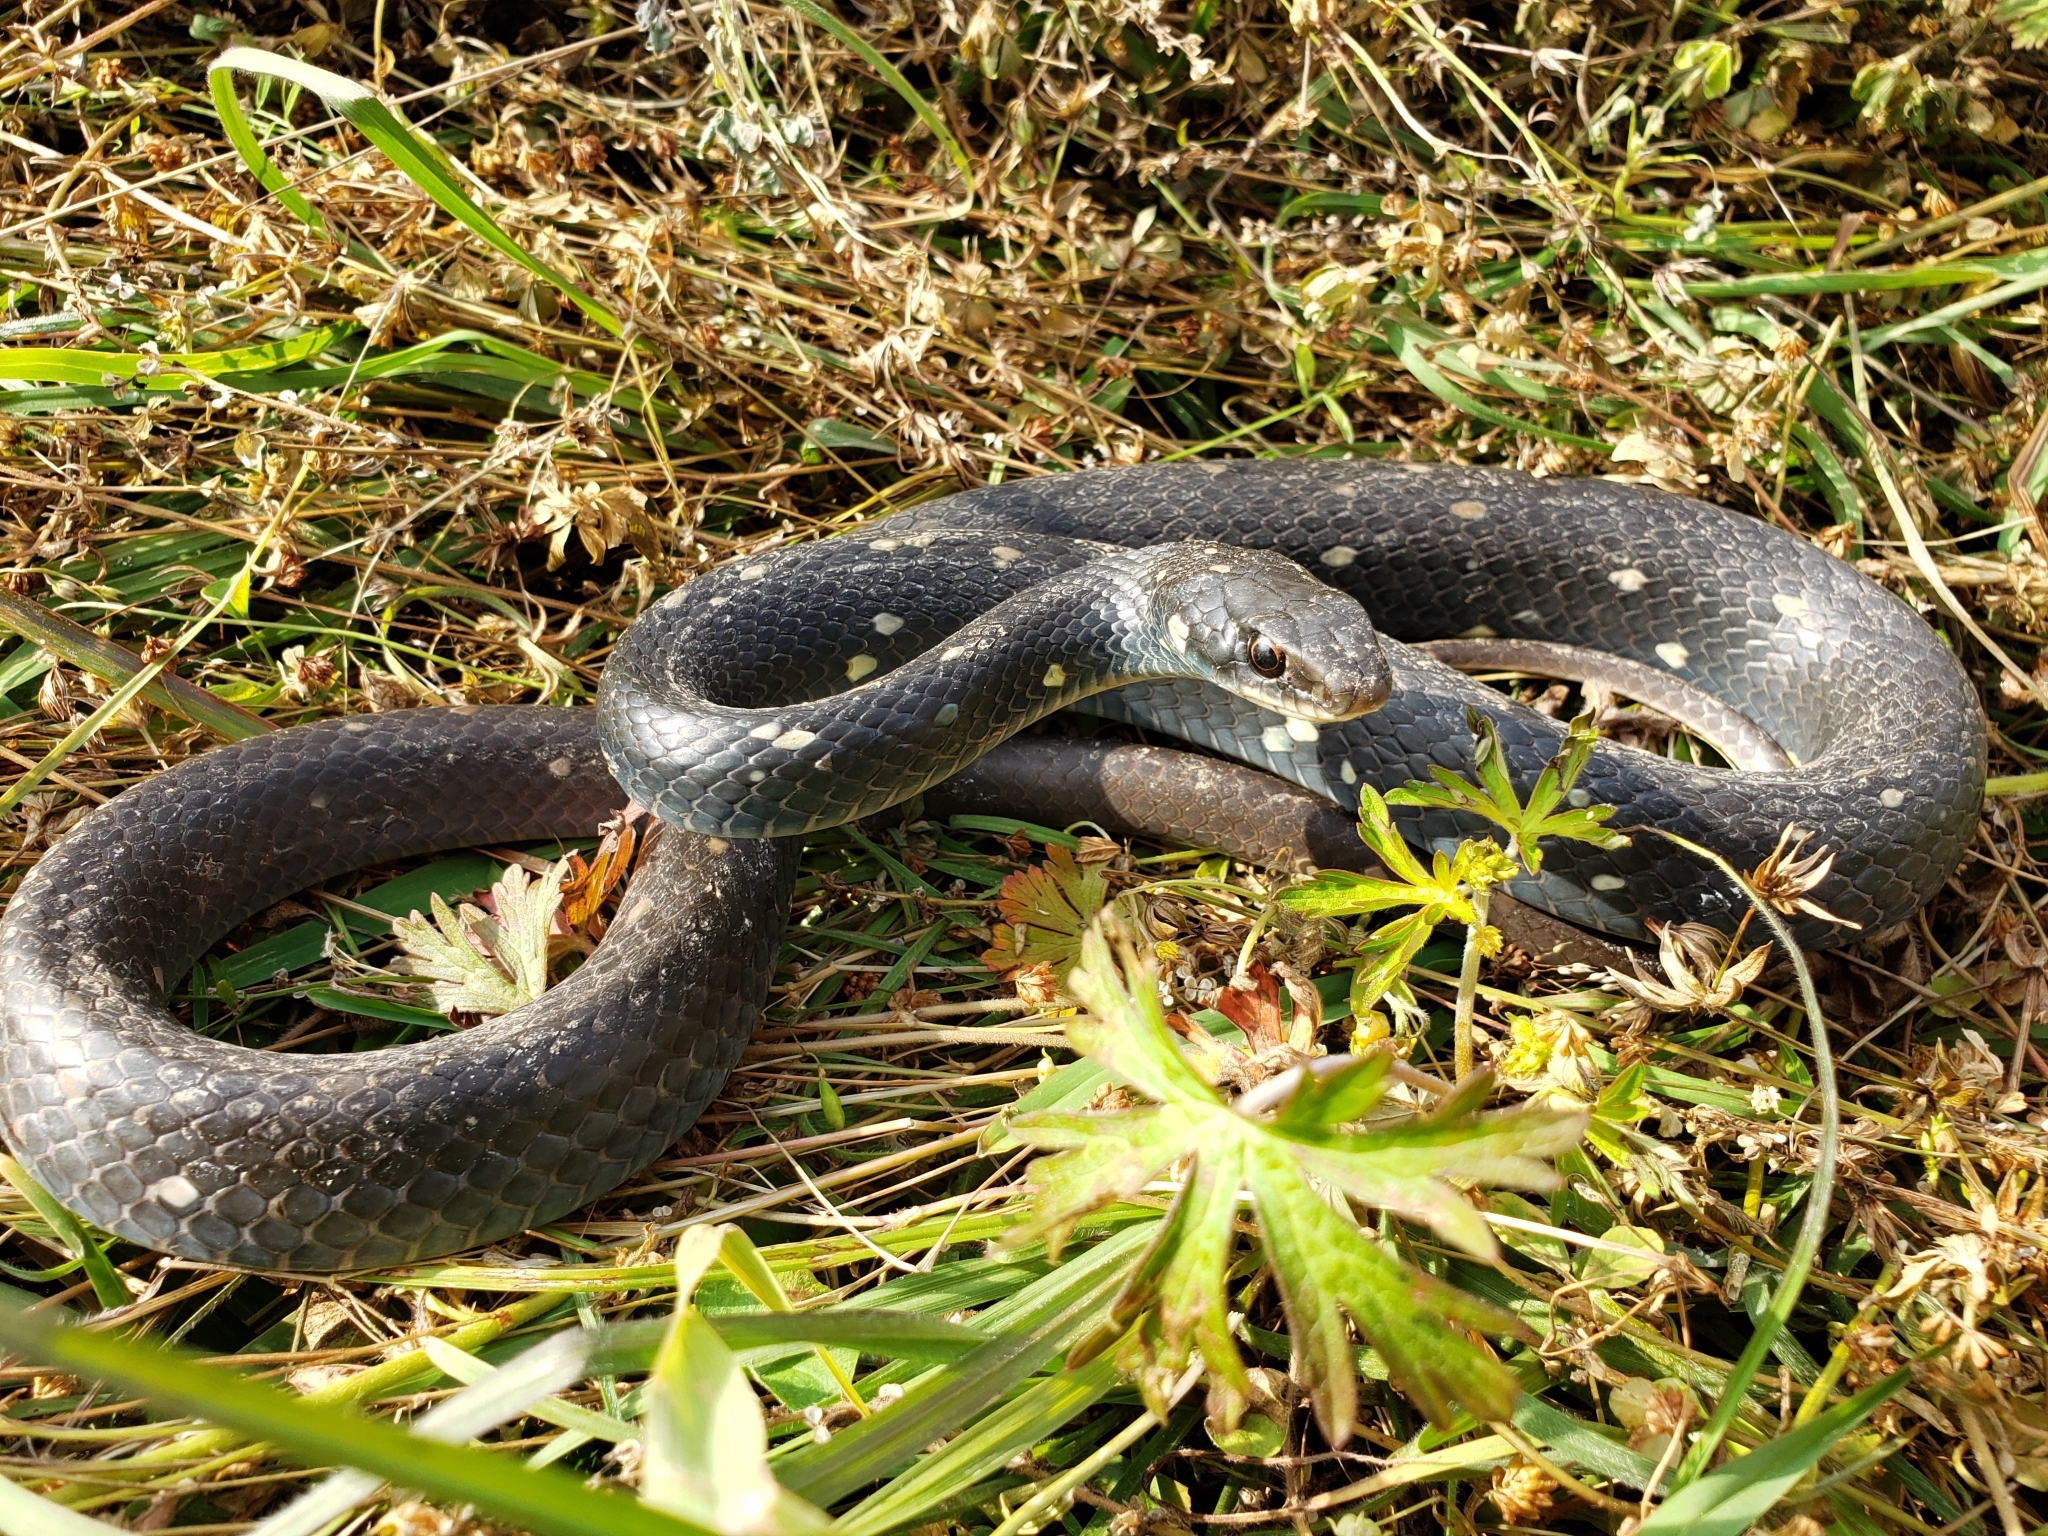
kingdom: Animalia
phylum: Chordata
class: Squamata
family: Colubridae
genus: Coluber
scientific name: Coluber constrictor
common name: Eastern racer
